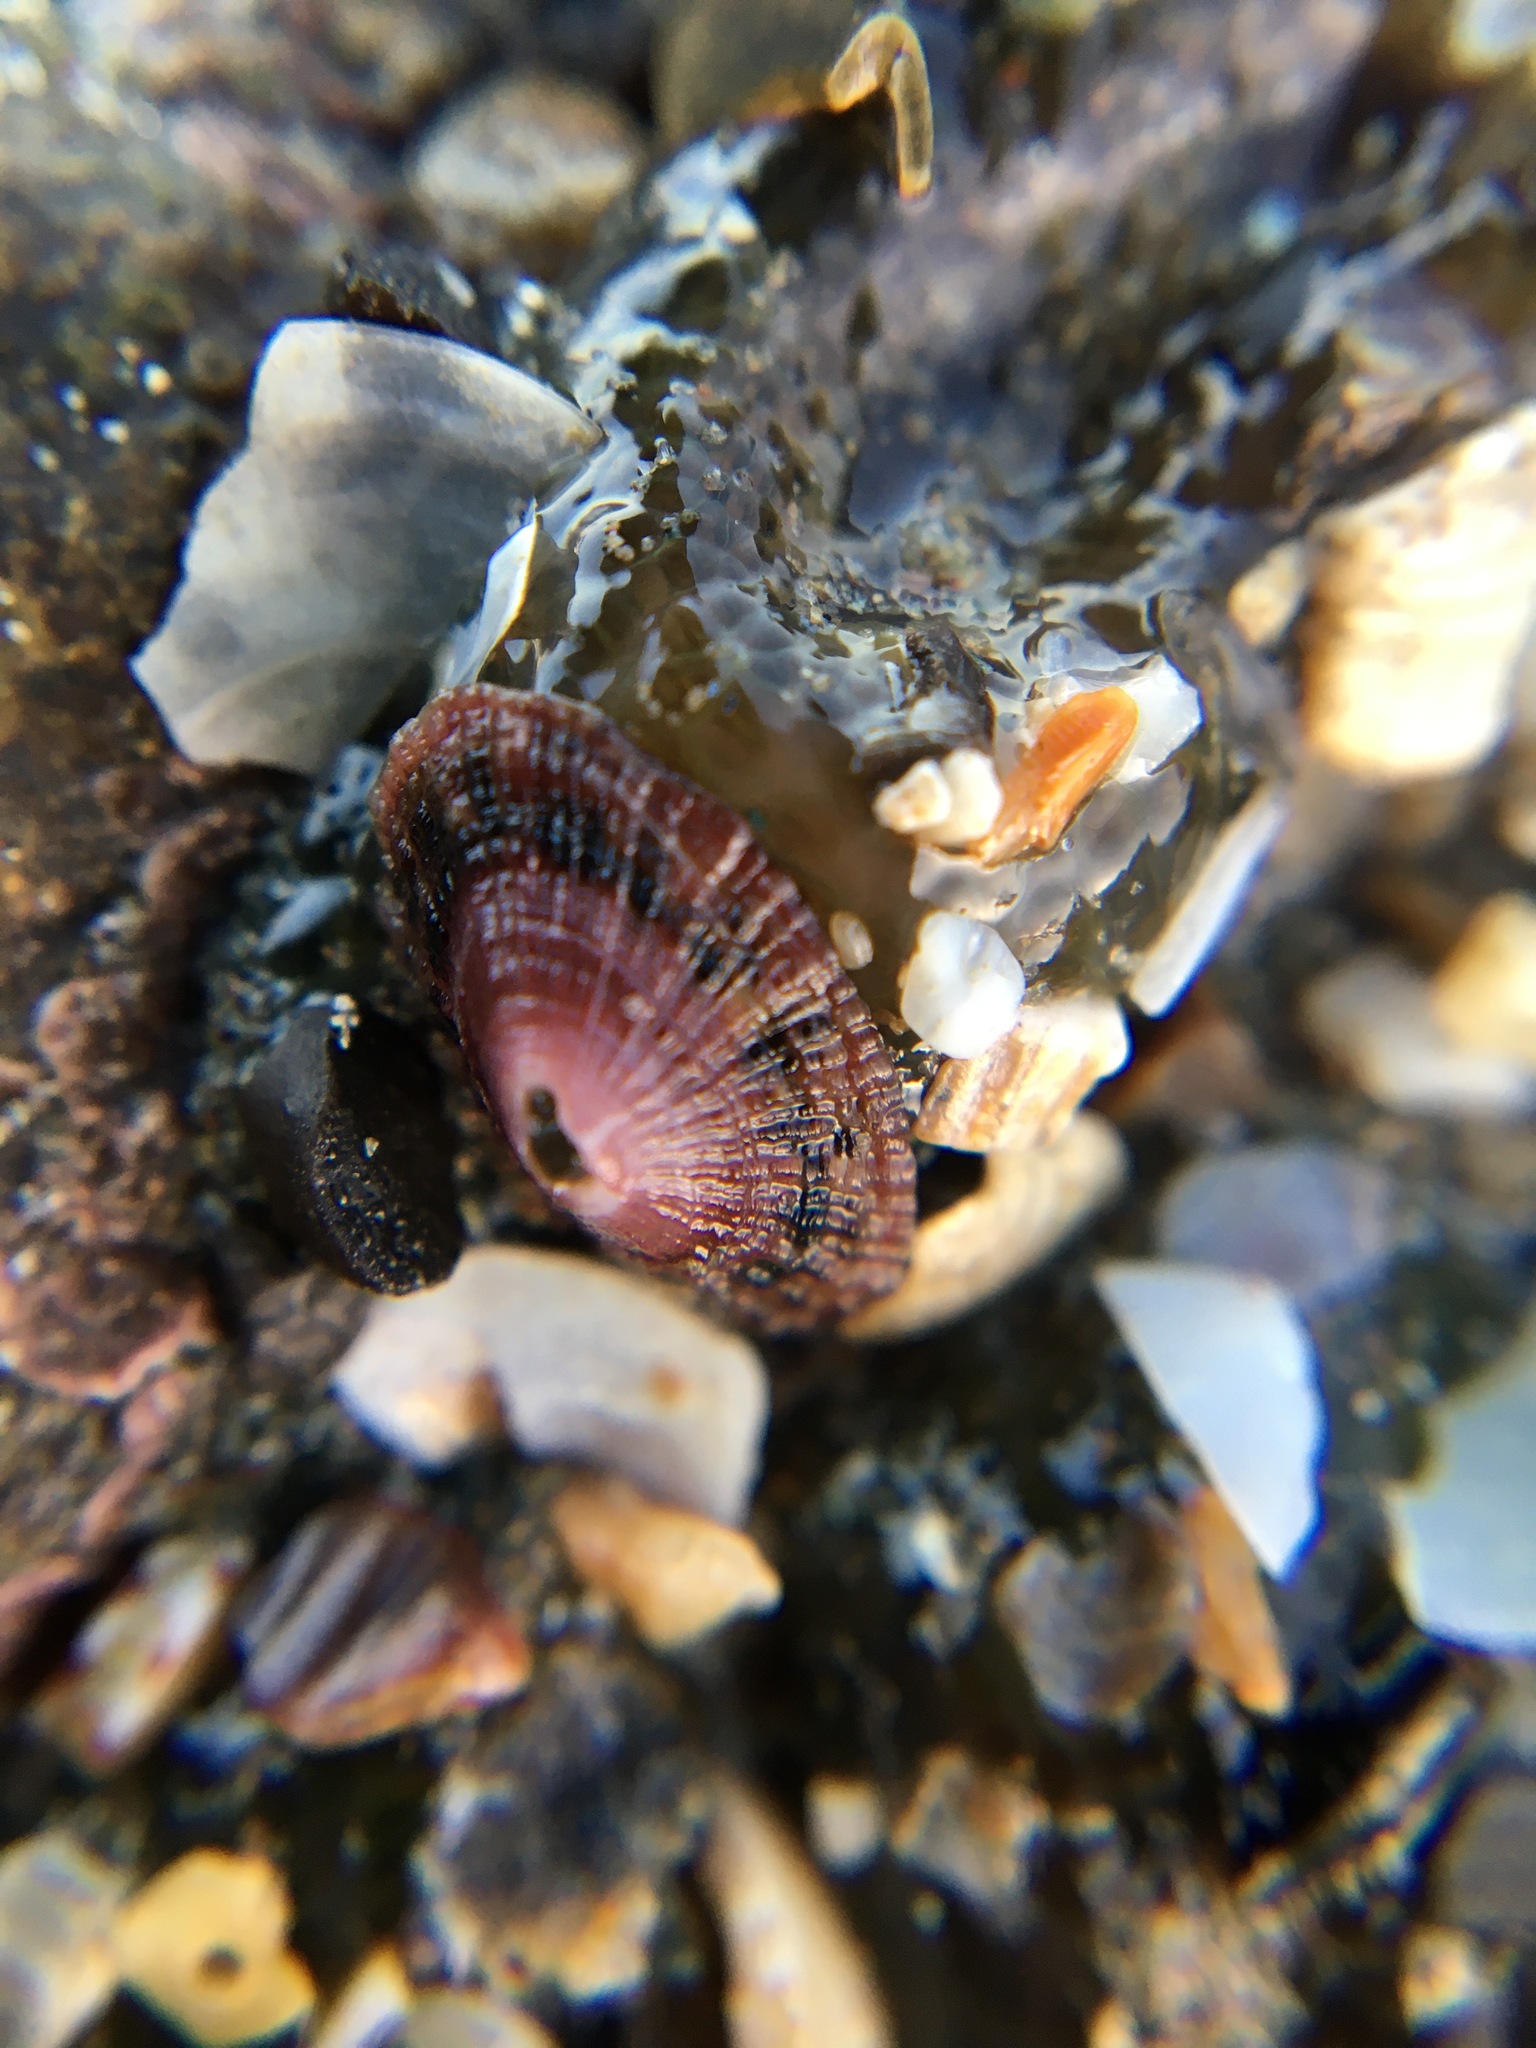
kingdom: Animalia
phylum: Mollusca
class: Gastropoda
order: Lepetellida
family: Fissurellidae
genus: Fissurella
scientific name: Fissurella volcano
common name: Volcano keyhole limpet
